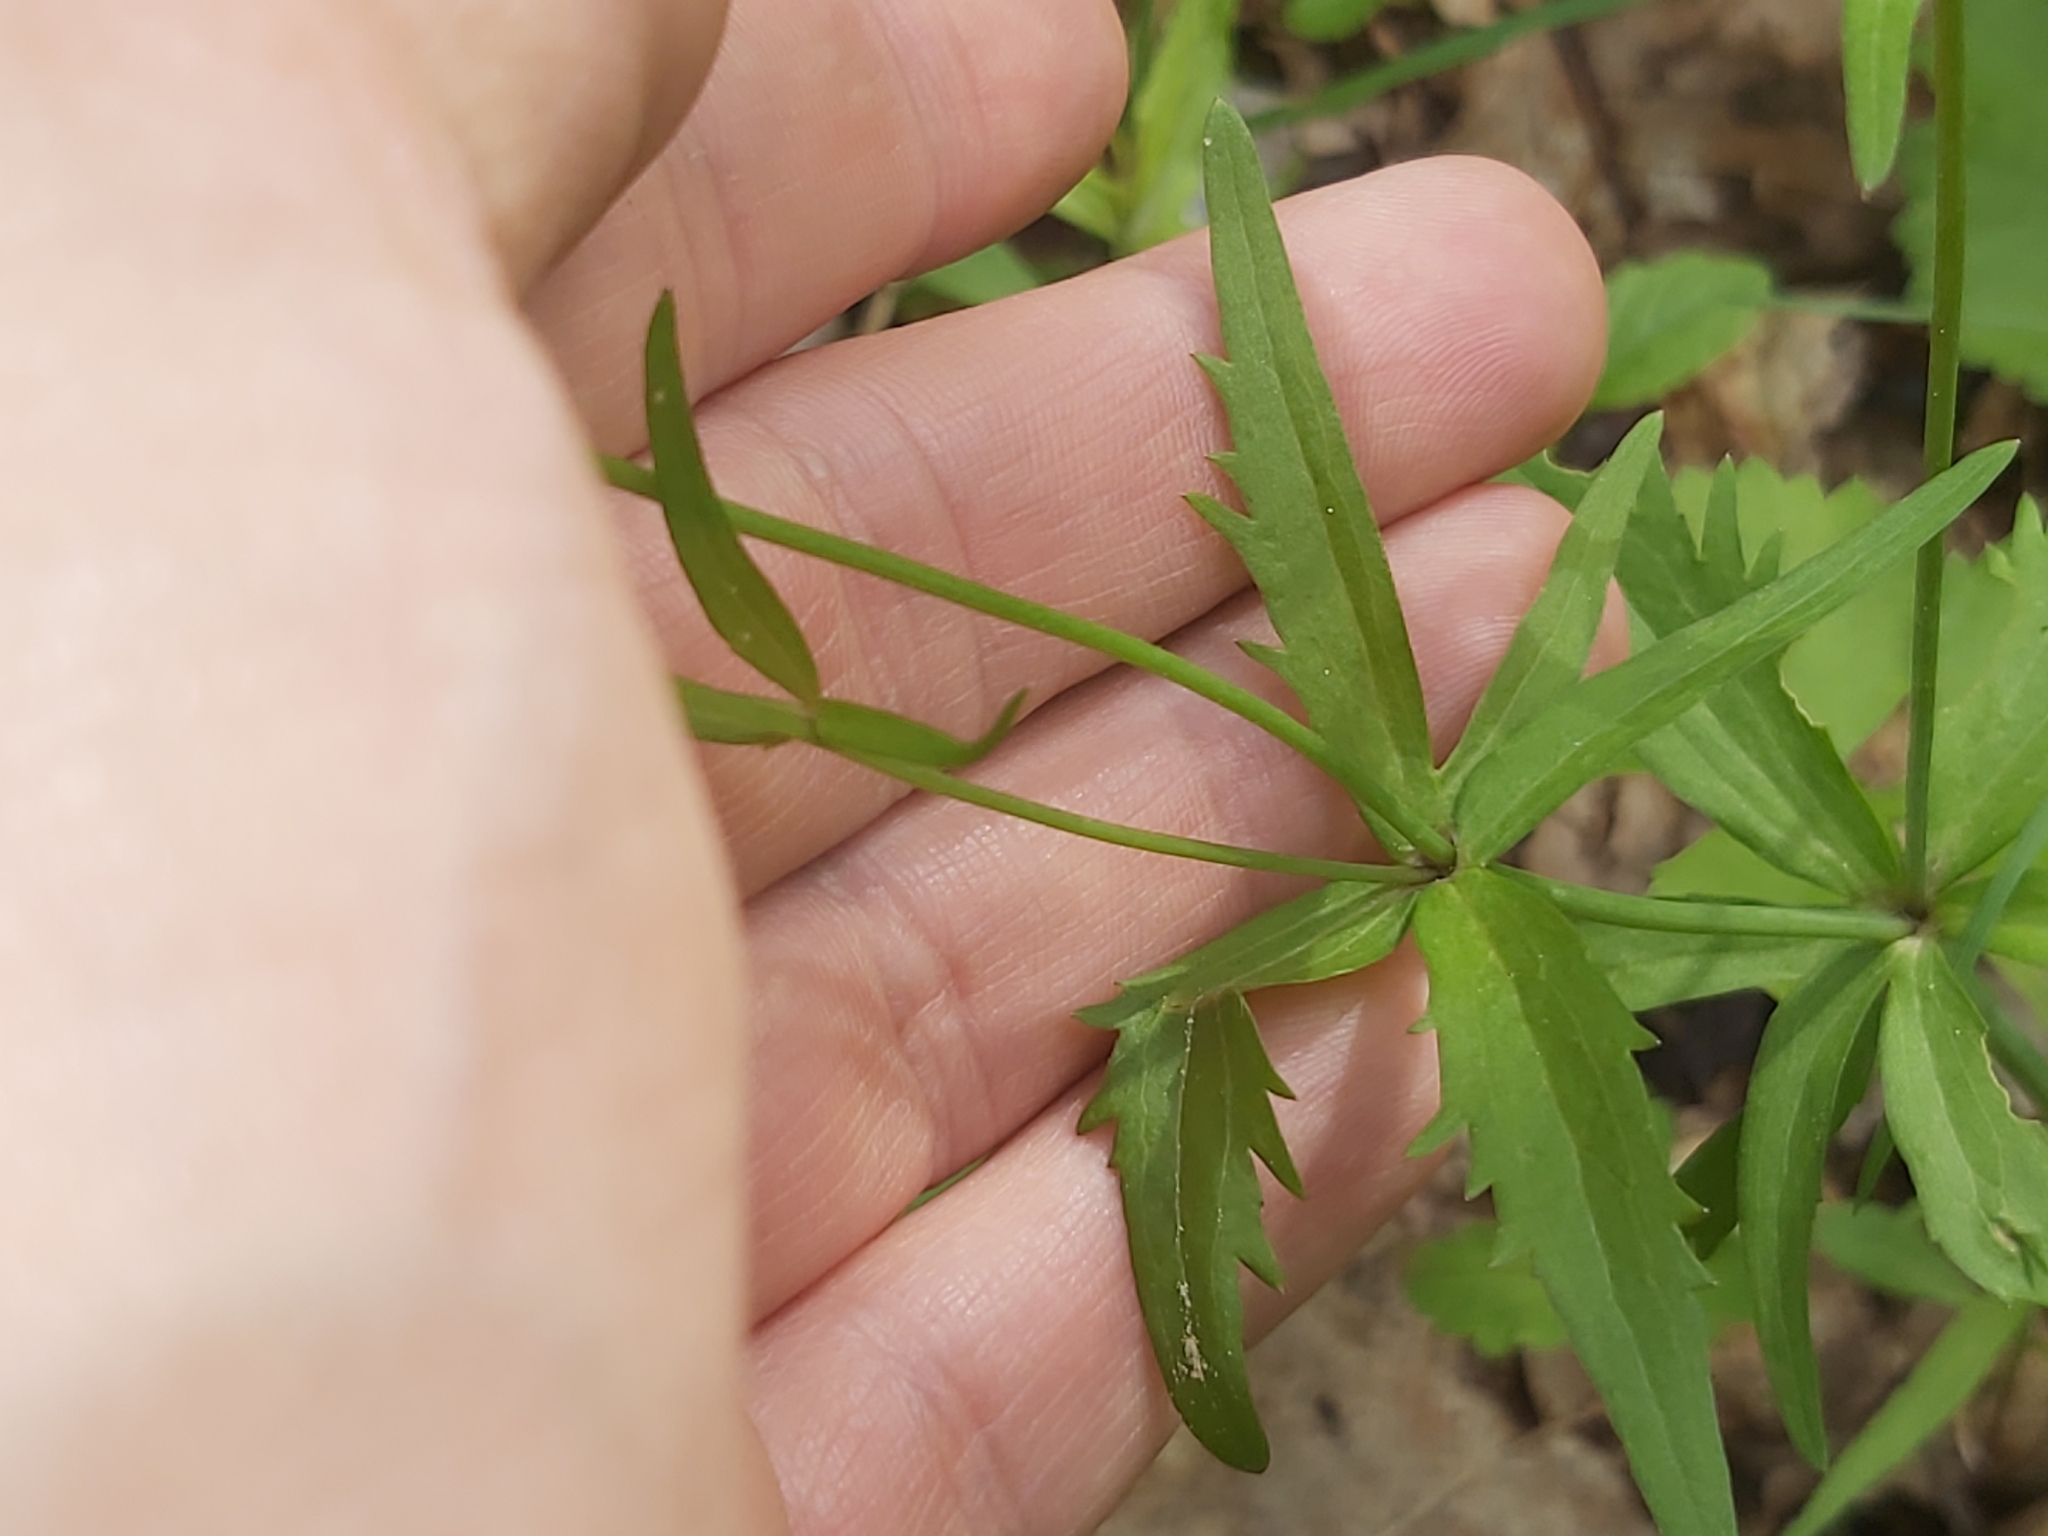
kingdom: Plantae
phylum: Tracheophyta
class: Magnoliopsida
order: Ranunculales
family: Ranunculaceae
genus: Ranunculus
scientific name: Ranunculus cassubicus
